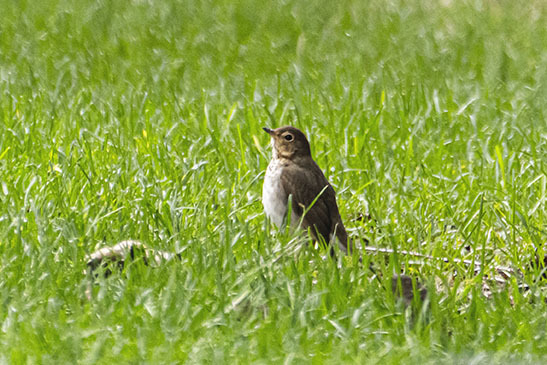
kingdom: Animalia
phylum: Chordata
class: Aves
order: Passeriformes
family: Turdidae
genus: Catharus
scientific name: Catharus ustulatus
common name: Swainson's thrush
